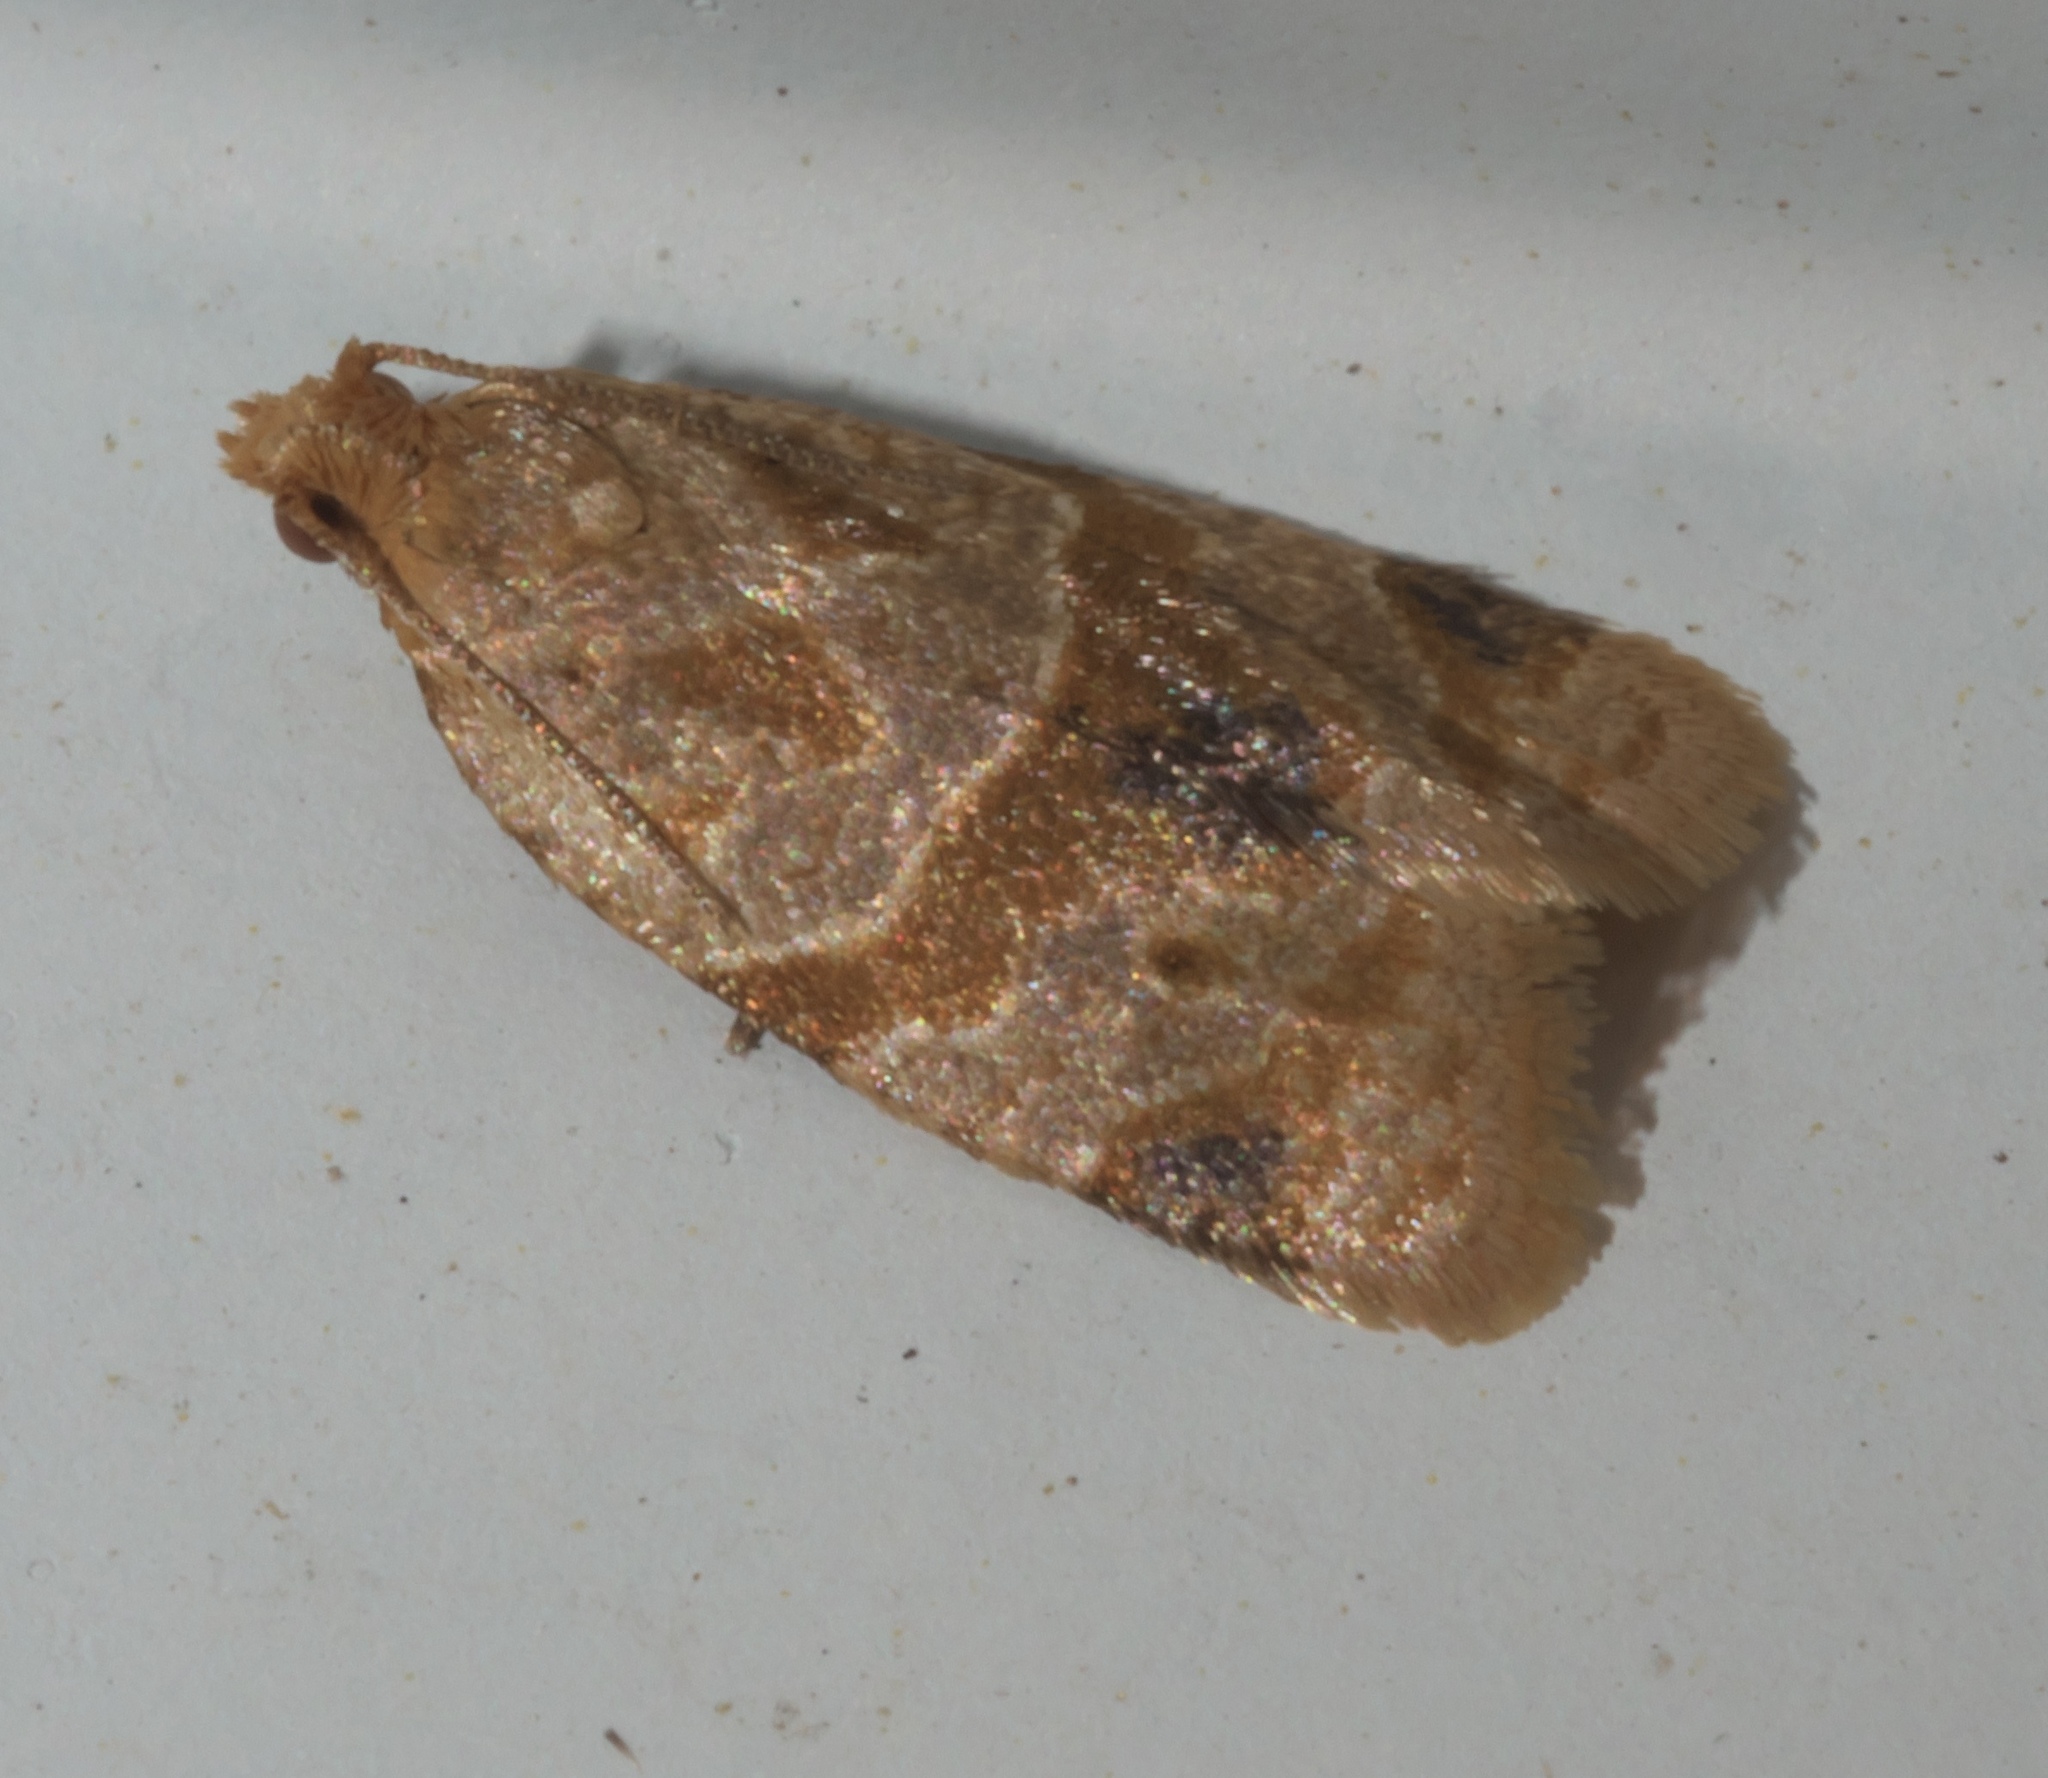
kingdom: Animalia
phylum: Arthropoda
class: Insecta
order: Lepidoptera
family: Tortricidae
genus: Clepsis
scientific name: Clepsis peritana
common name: Garden tortrix
